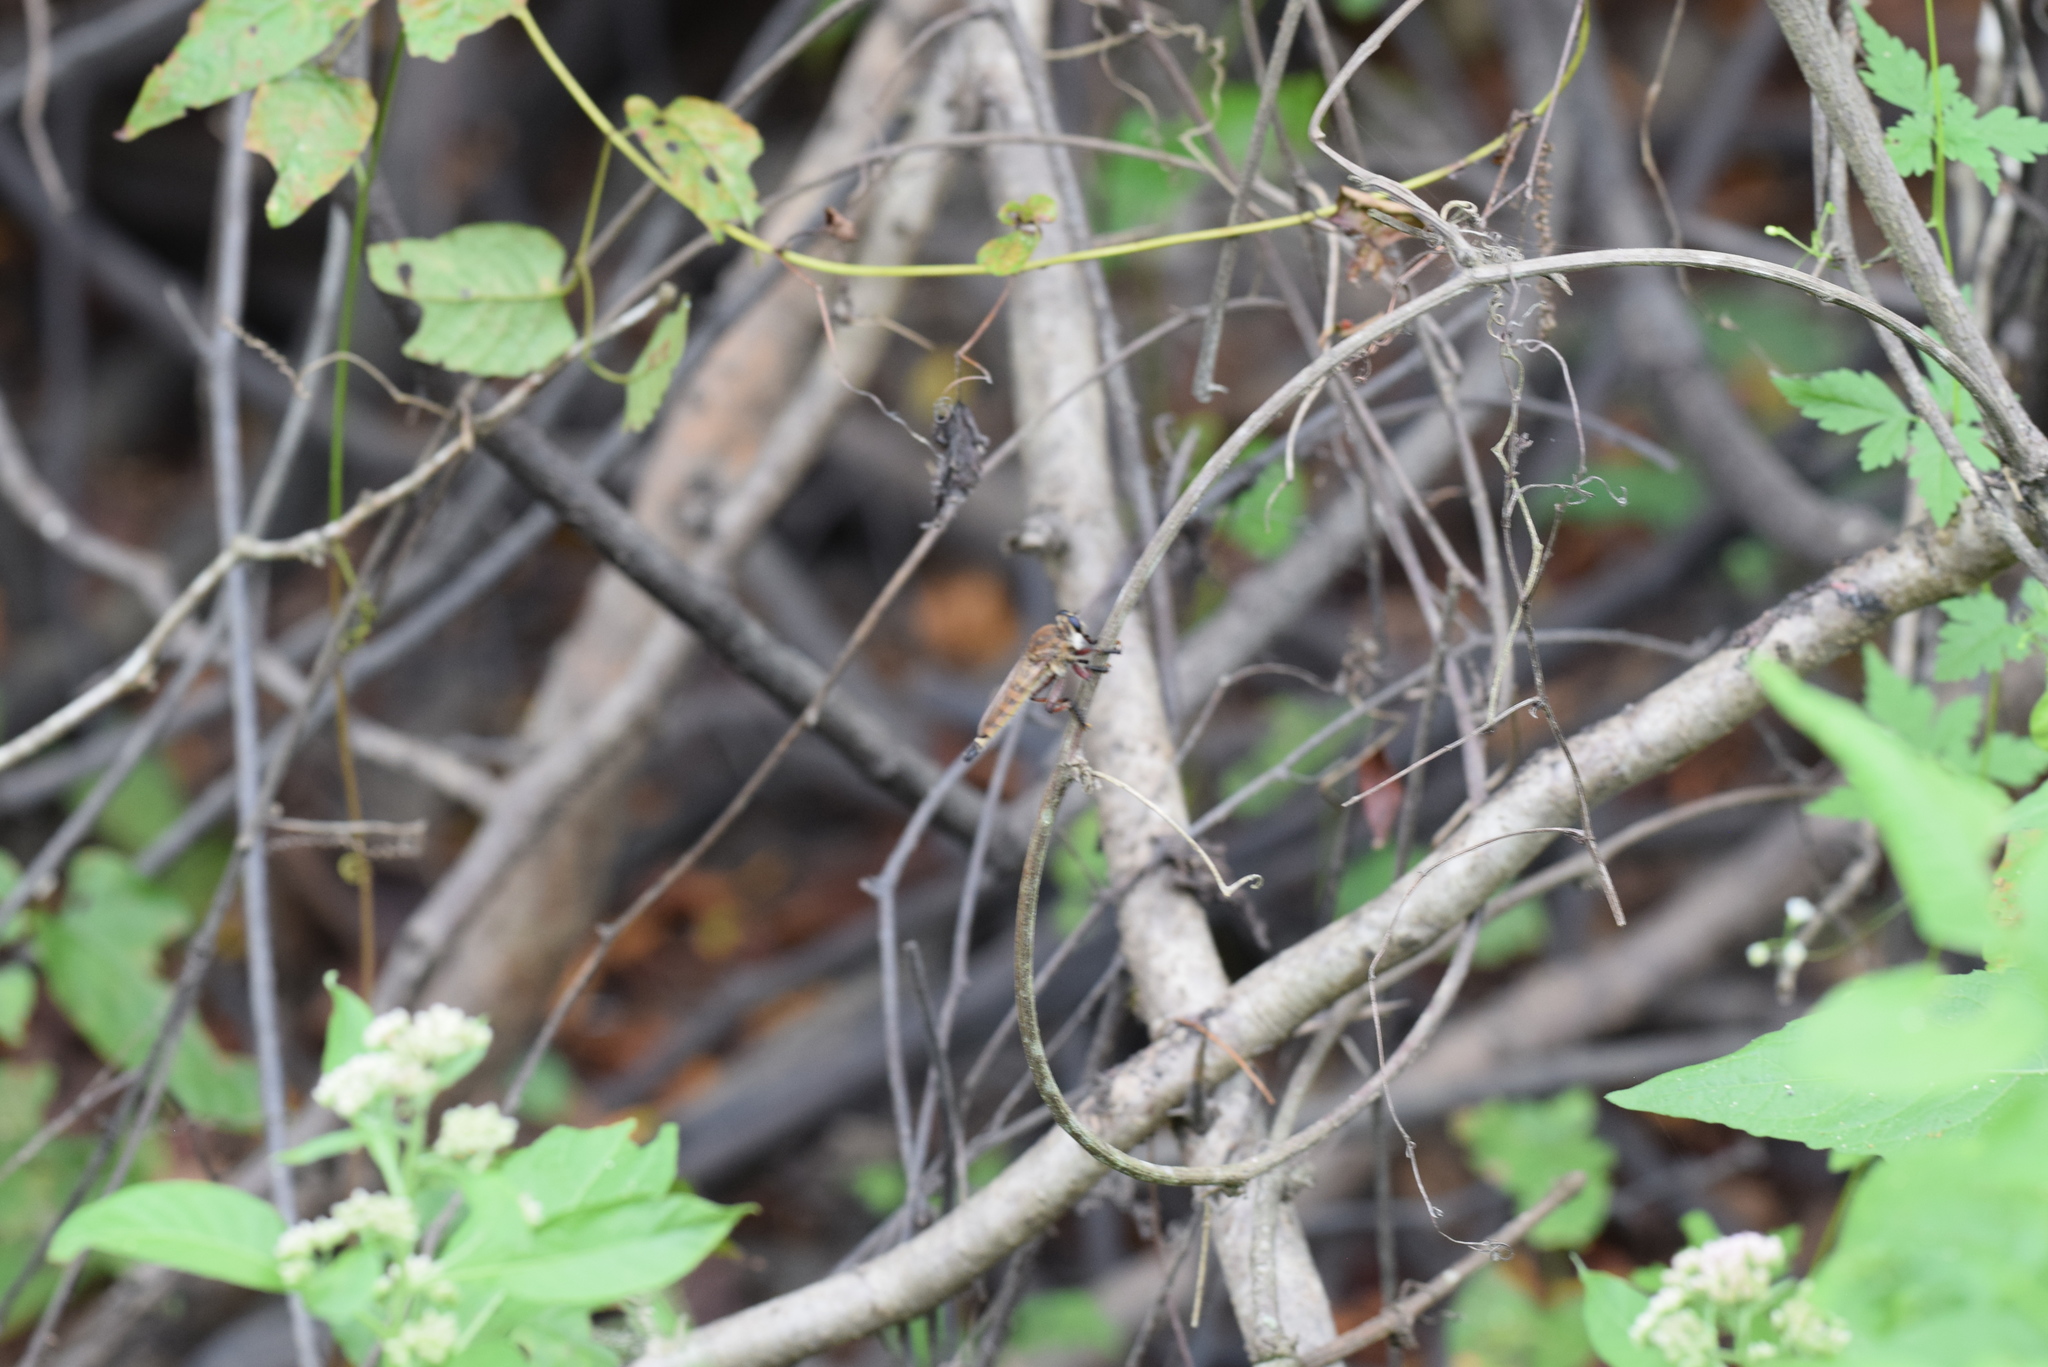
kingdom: Animalia
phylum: Arthropoda
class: Insecta
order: Diptera
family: Asilidae
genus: Promachus
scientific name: Promachus hinei
